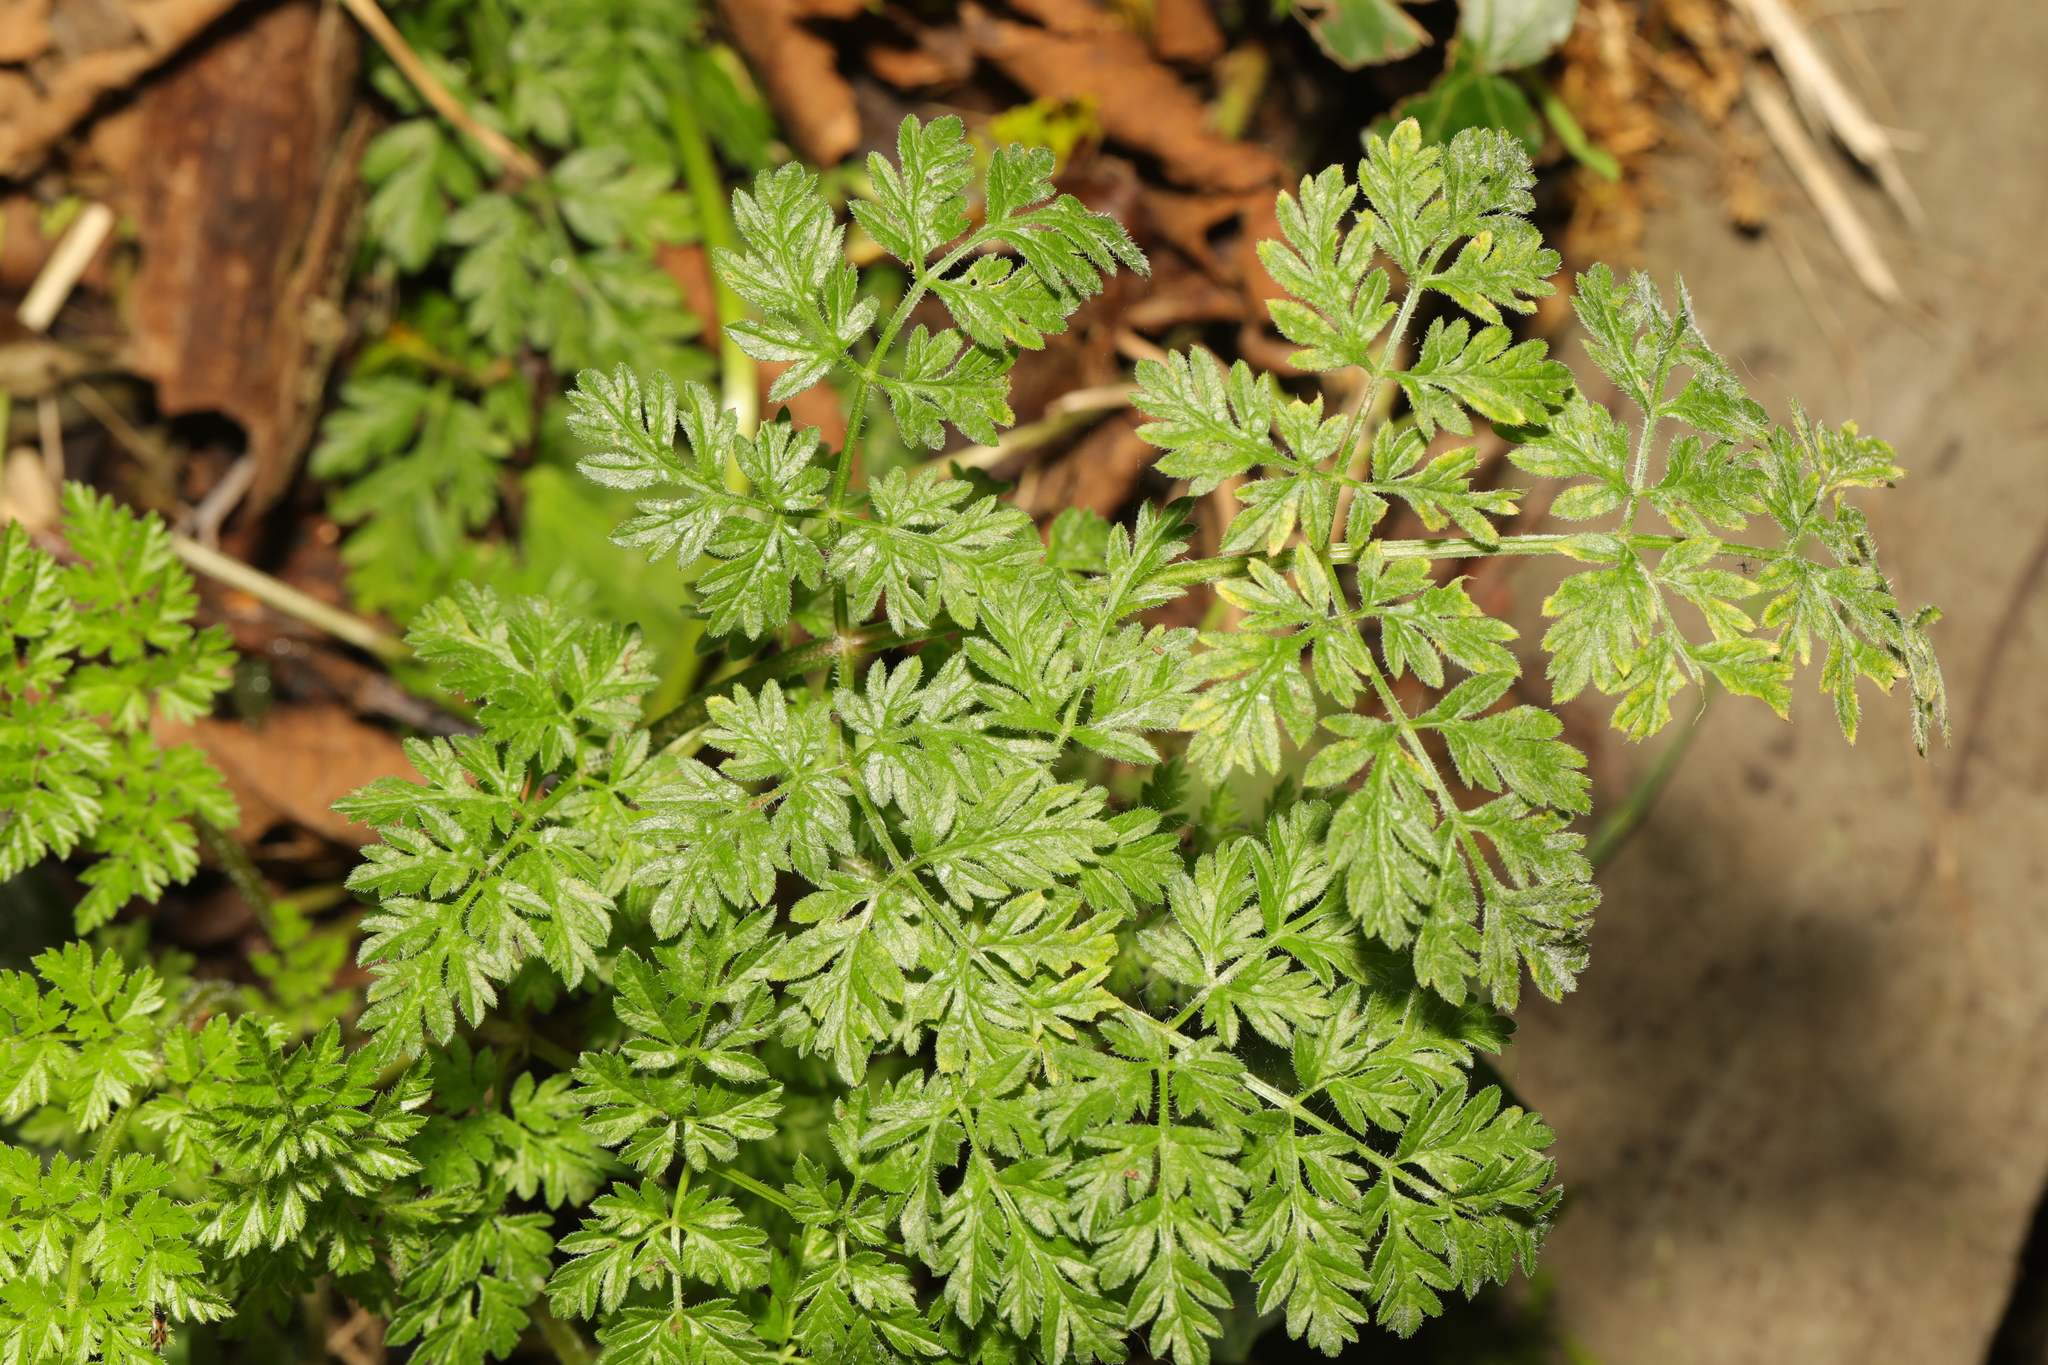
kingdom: Plantae
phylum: Tracheophyta
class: Magnoliopsida
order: Apiales
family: Apiaceae
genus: Anthriscus
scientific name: Anthriscus sylvestris
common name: Cow parsley
